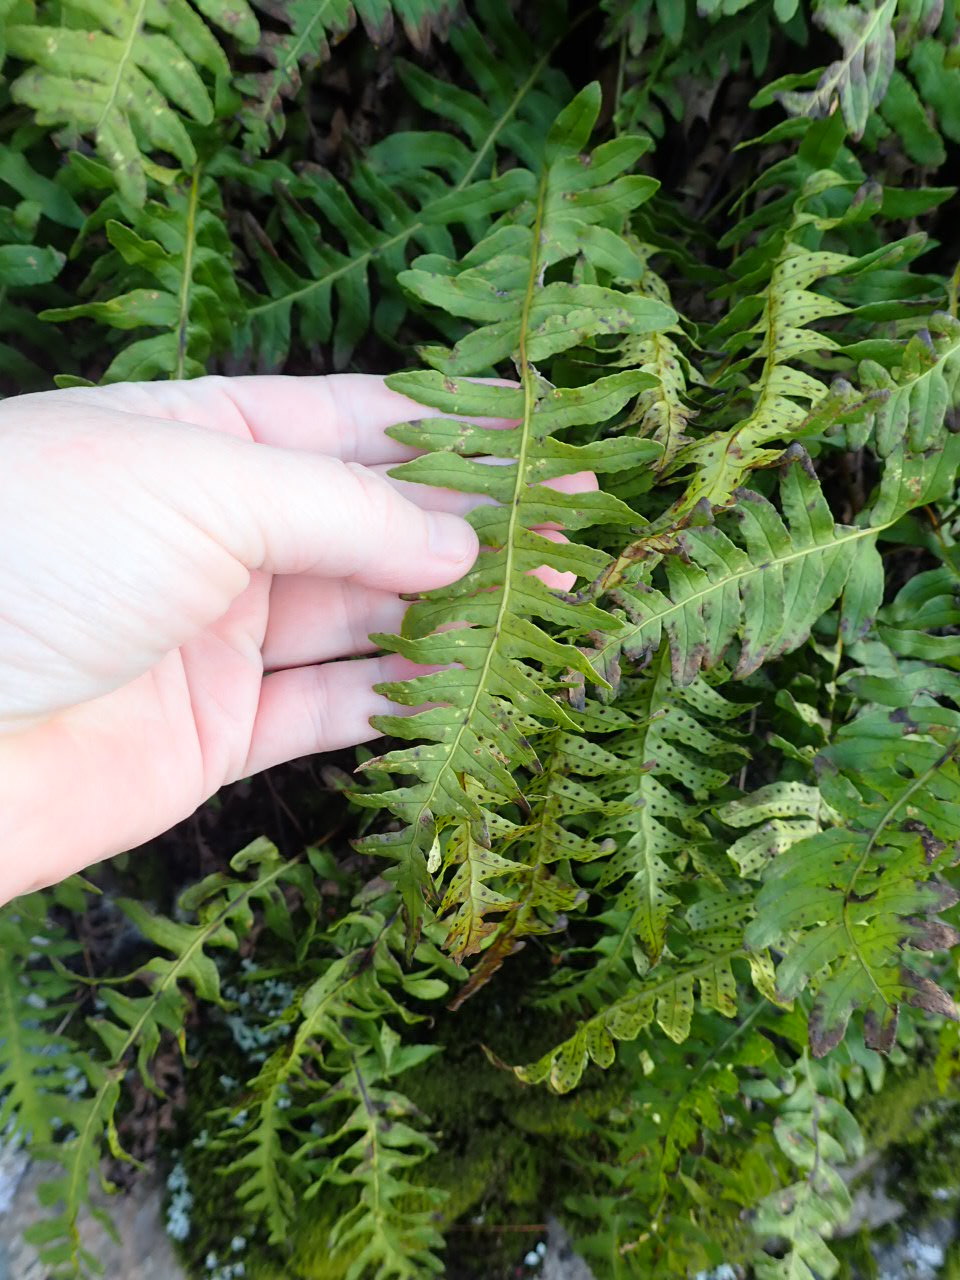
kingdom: Plantae
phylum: Tracheophyta
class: Polypodiopsida
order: Polypodiales
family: Polypodiaceae
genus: Polypodium
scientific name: Polypodium virginianum
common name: American wall fern
